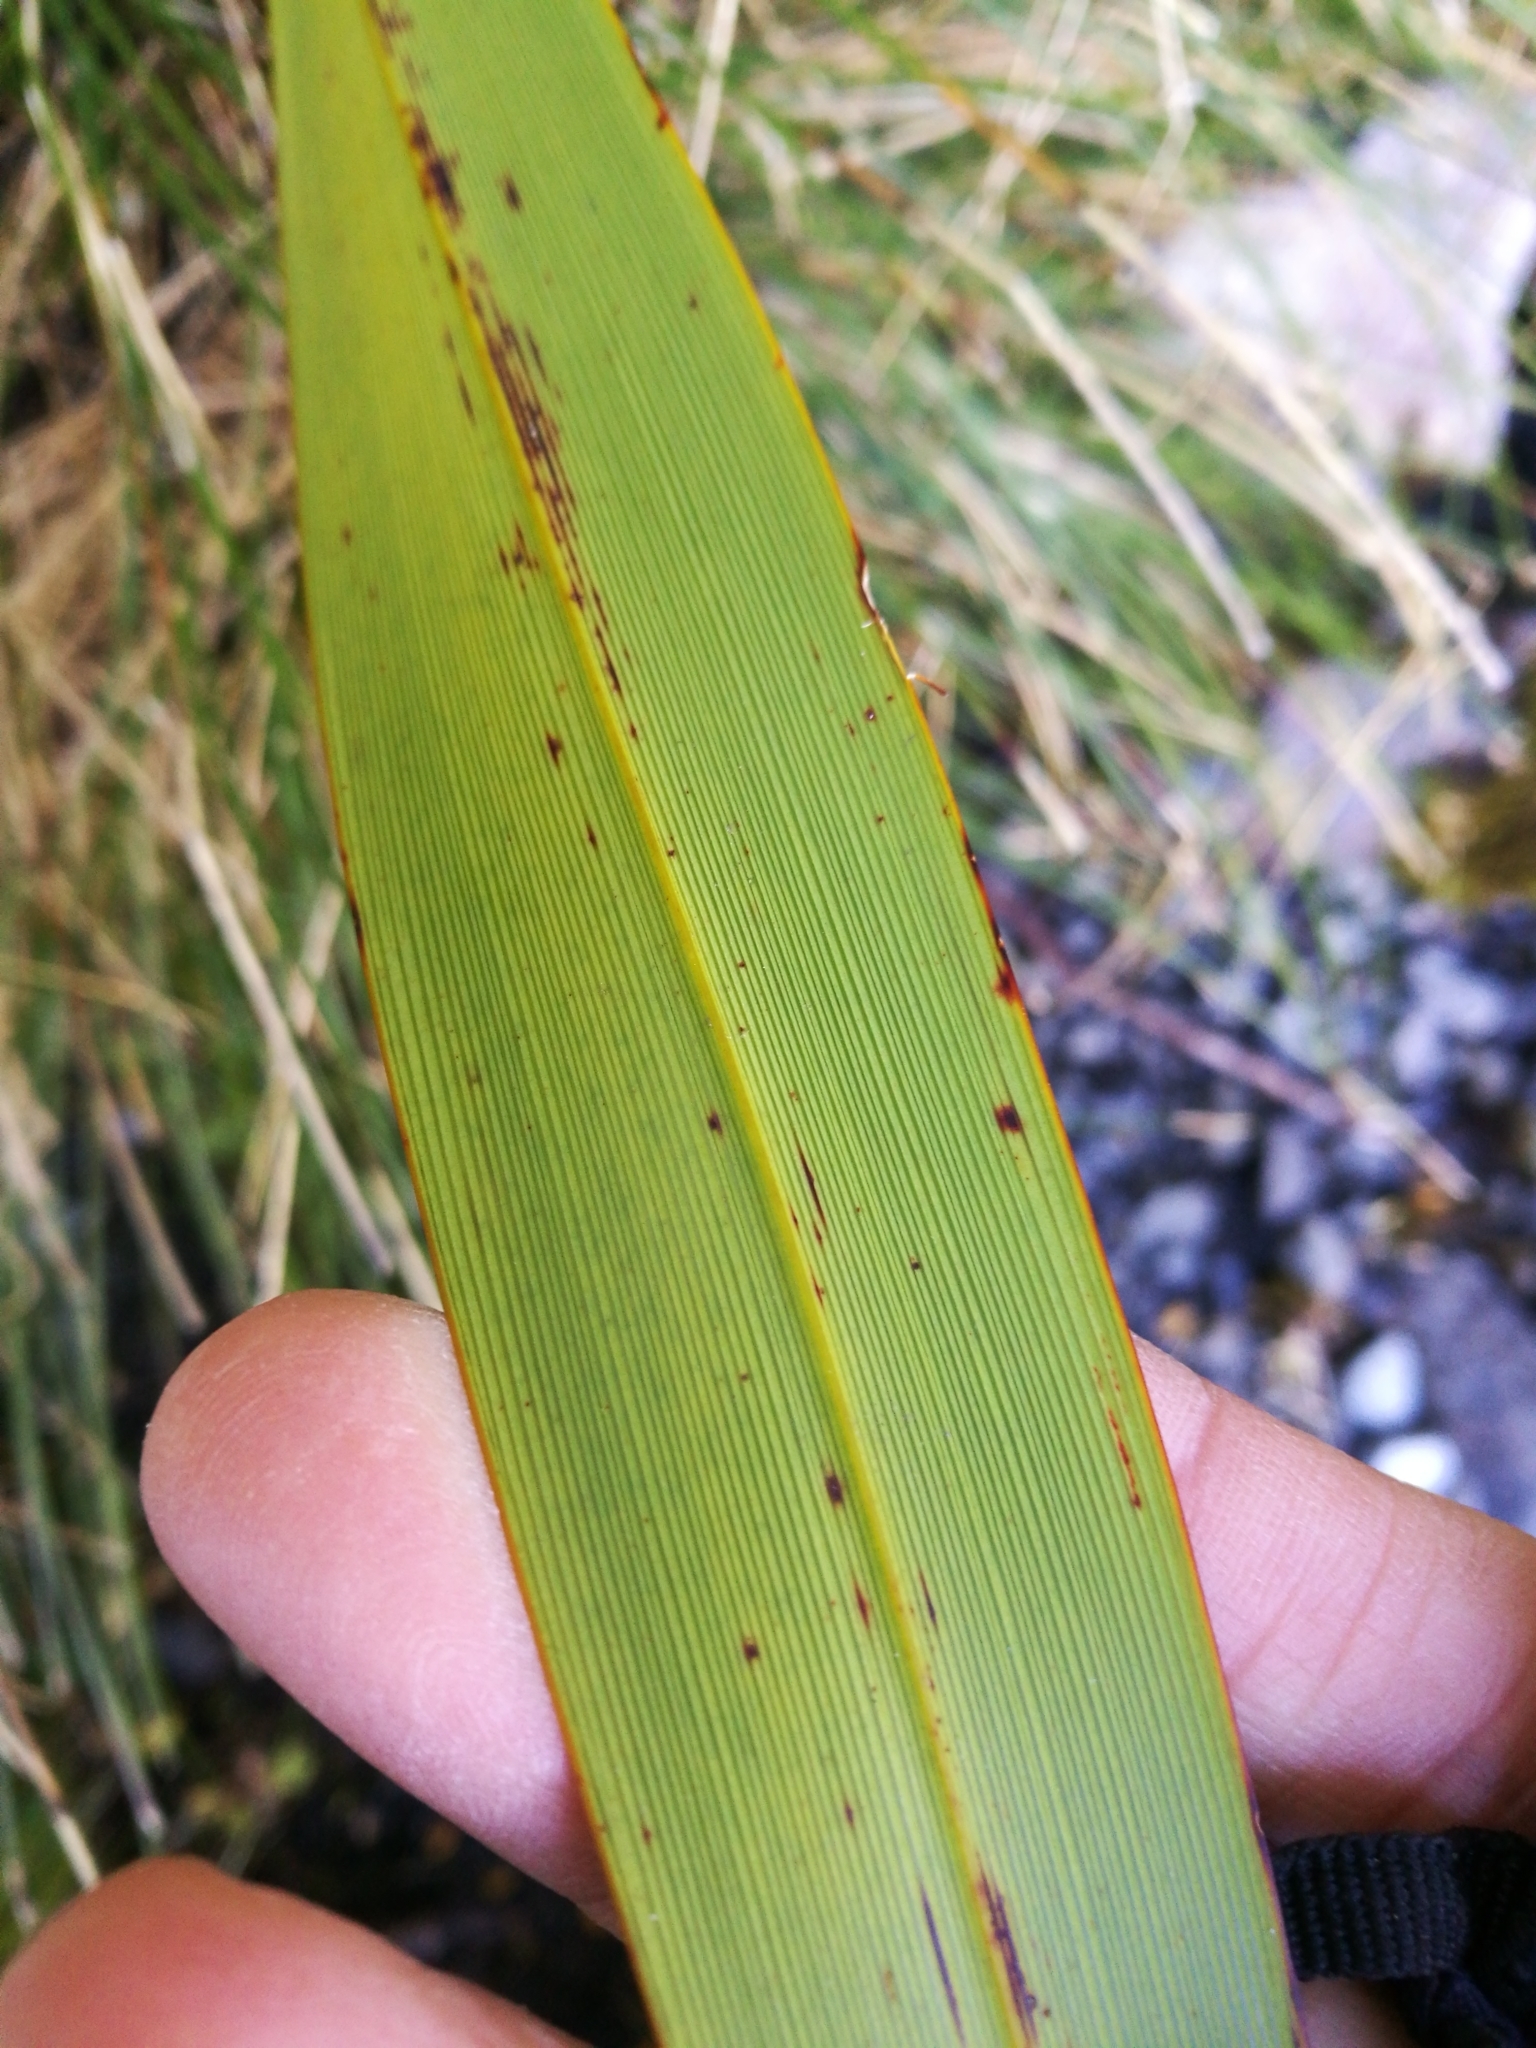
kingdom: Plantae
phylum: Tracheophyta
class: Liliopsida
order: Asparagales
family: Asphodelaceae
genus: Phormium
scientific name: Phormium colensoi
